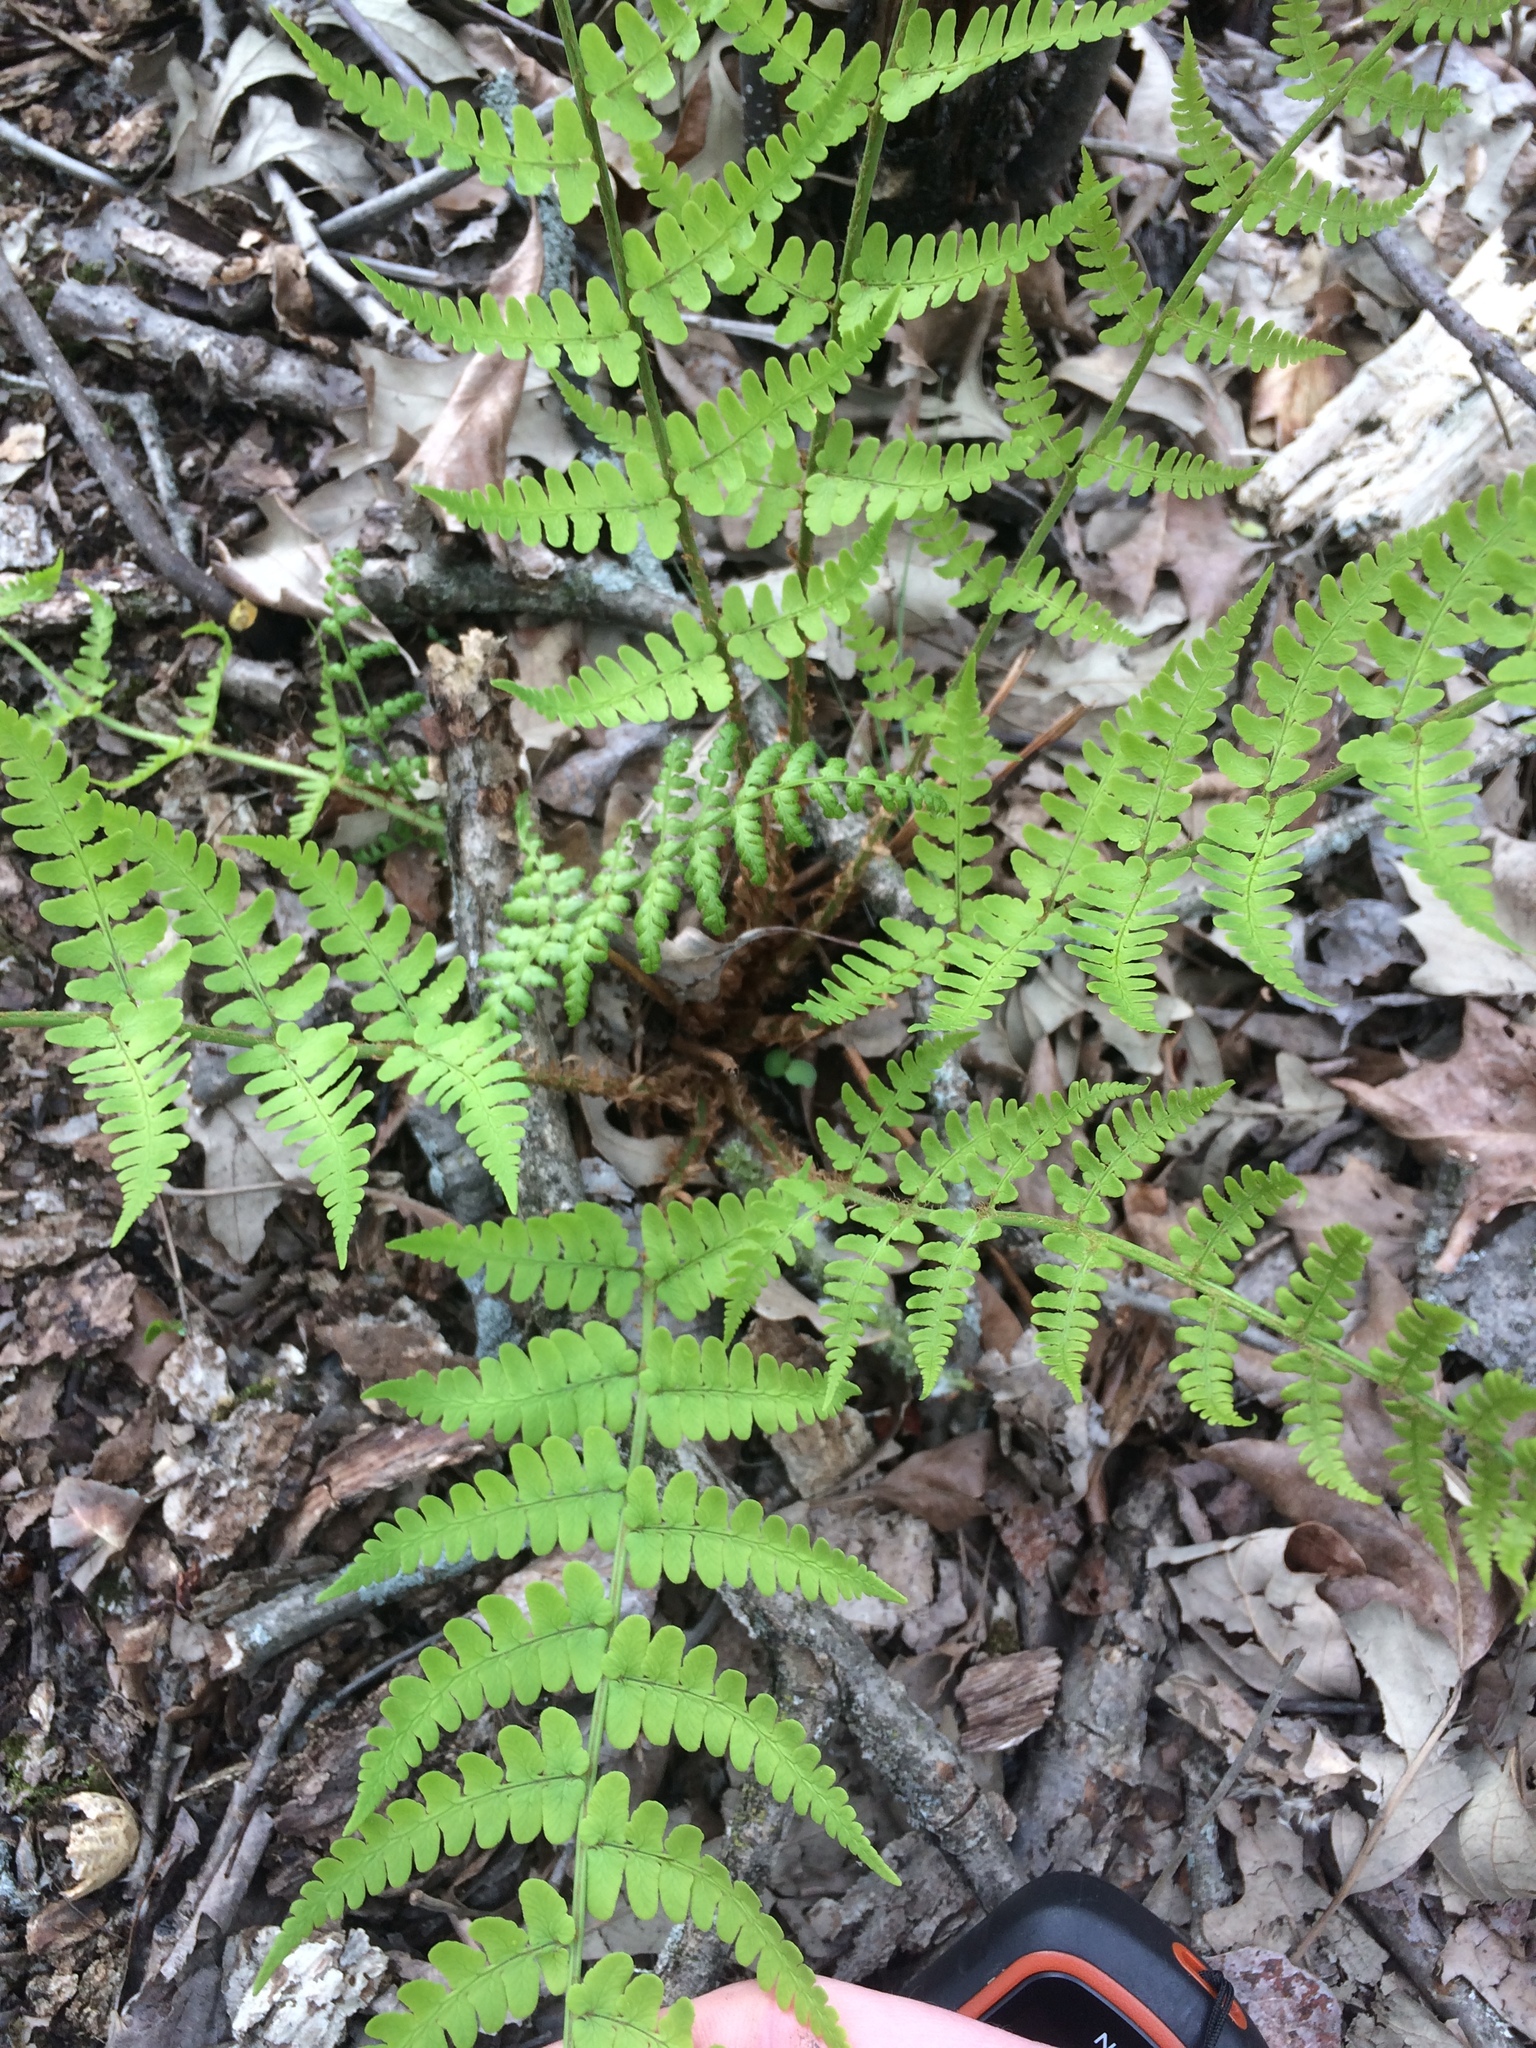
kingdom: Plantae
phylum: Tracheophyta
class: Polypodiopsida
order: Polypodiales
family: Dryopteridaceae
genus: Dryopteris
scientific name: Dryopteris marginalis
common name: Marginal wood fern
